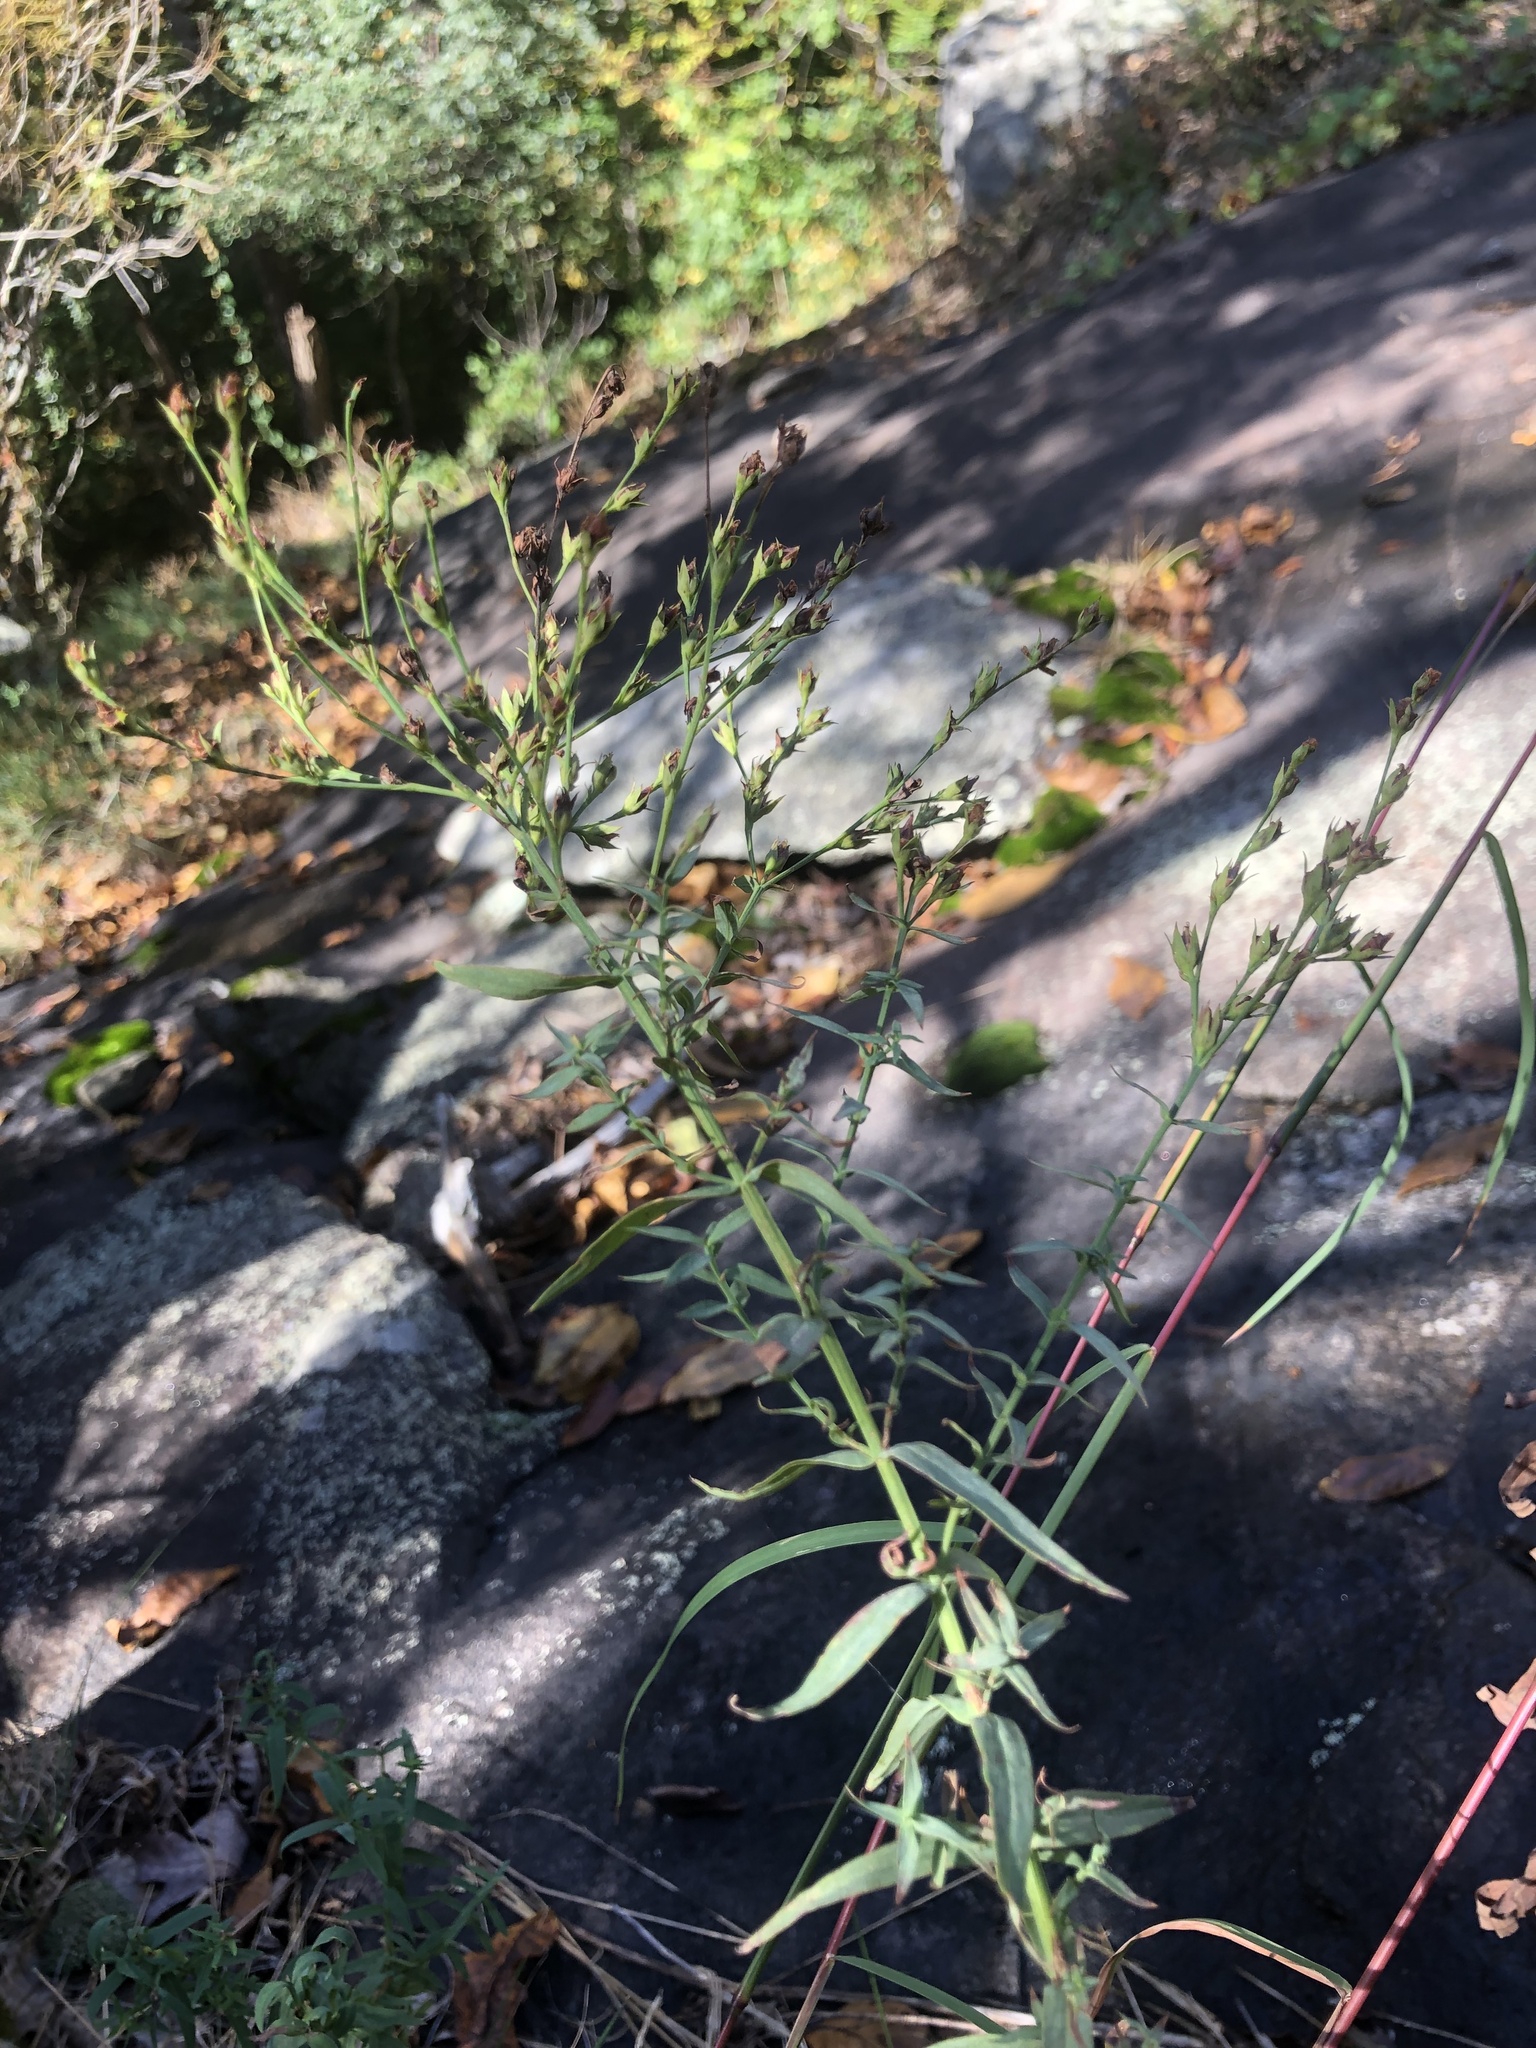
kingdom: Plantae
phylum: Tracheophyta
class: Magnoliopsida
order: Malpighiales
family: Hypericaceae
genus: Hypericum
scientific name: Hypericum radfordiorum
